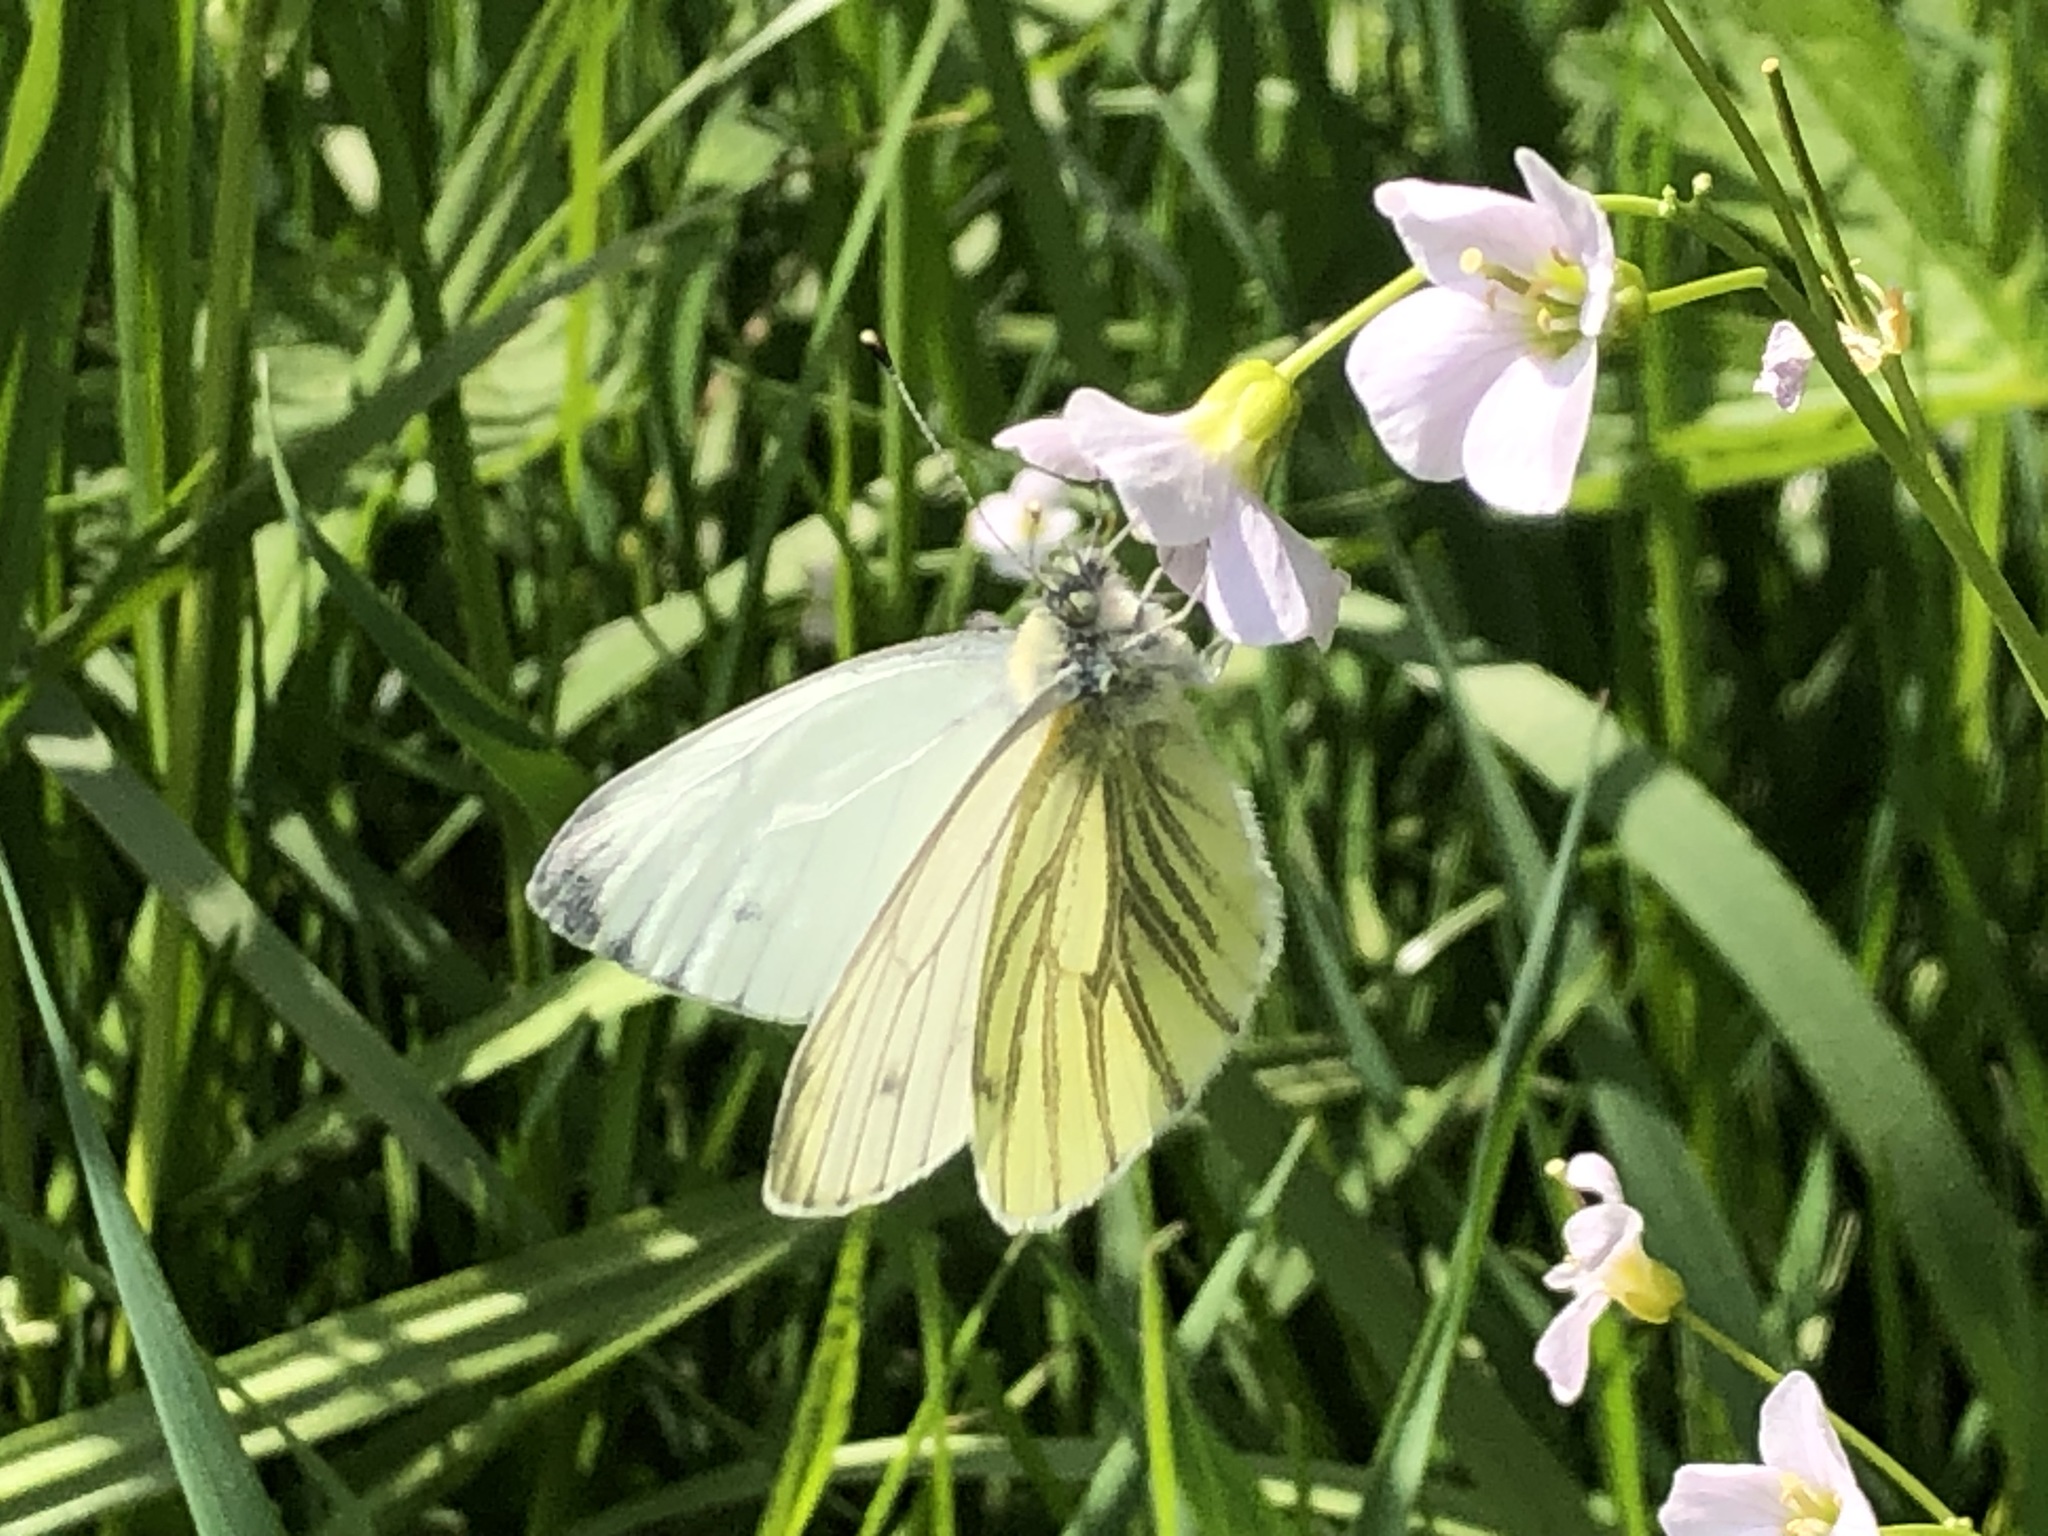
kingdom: Animalia
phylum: Arthropoda
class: Insecta
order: Lepidoptera
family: Pieridae
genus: Pieris
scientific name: Pieris napi
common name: Green-veined white
